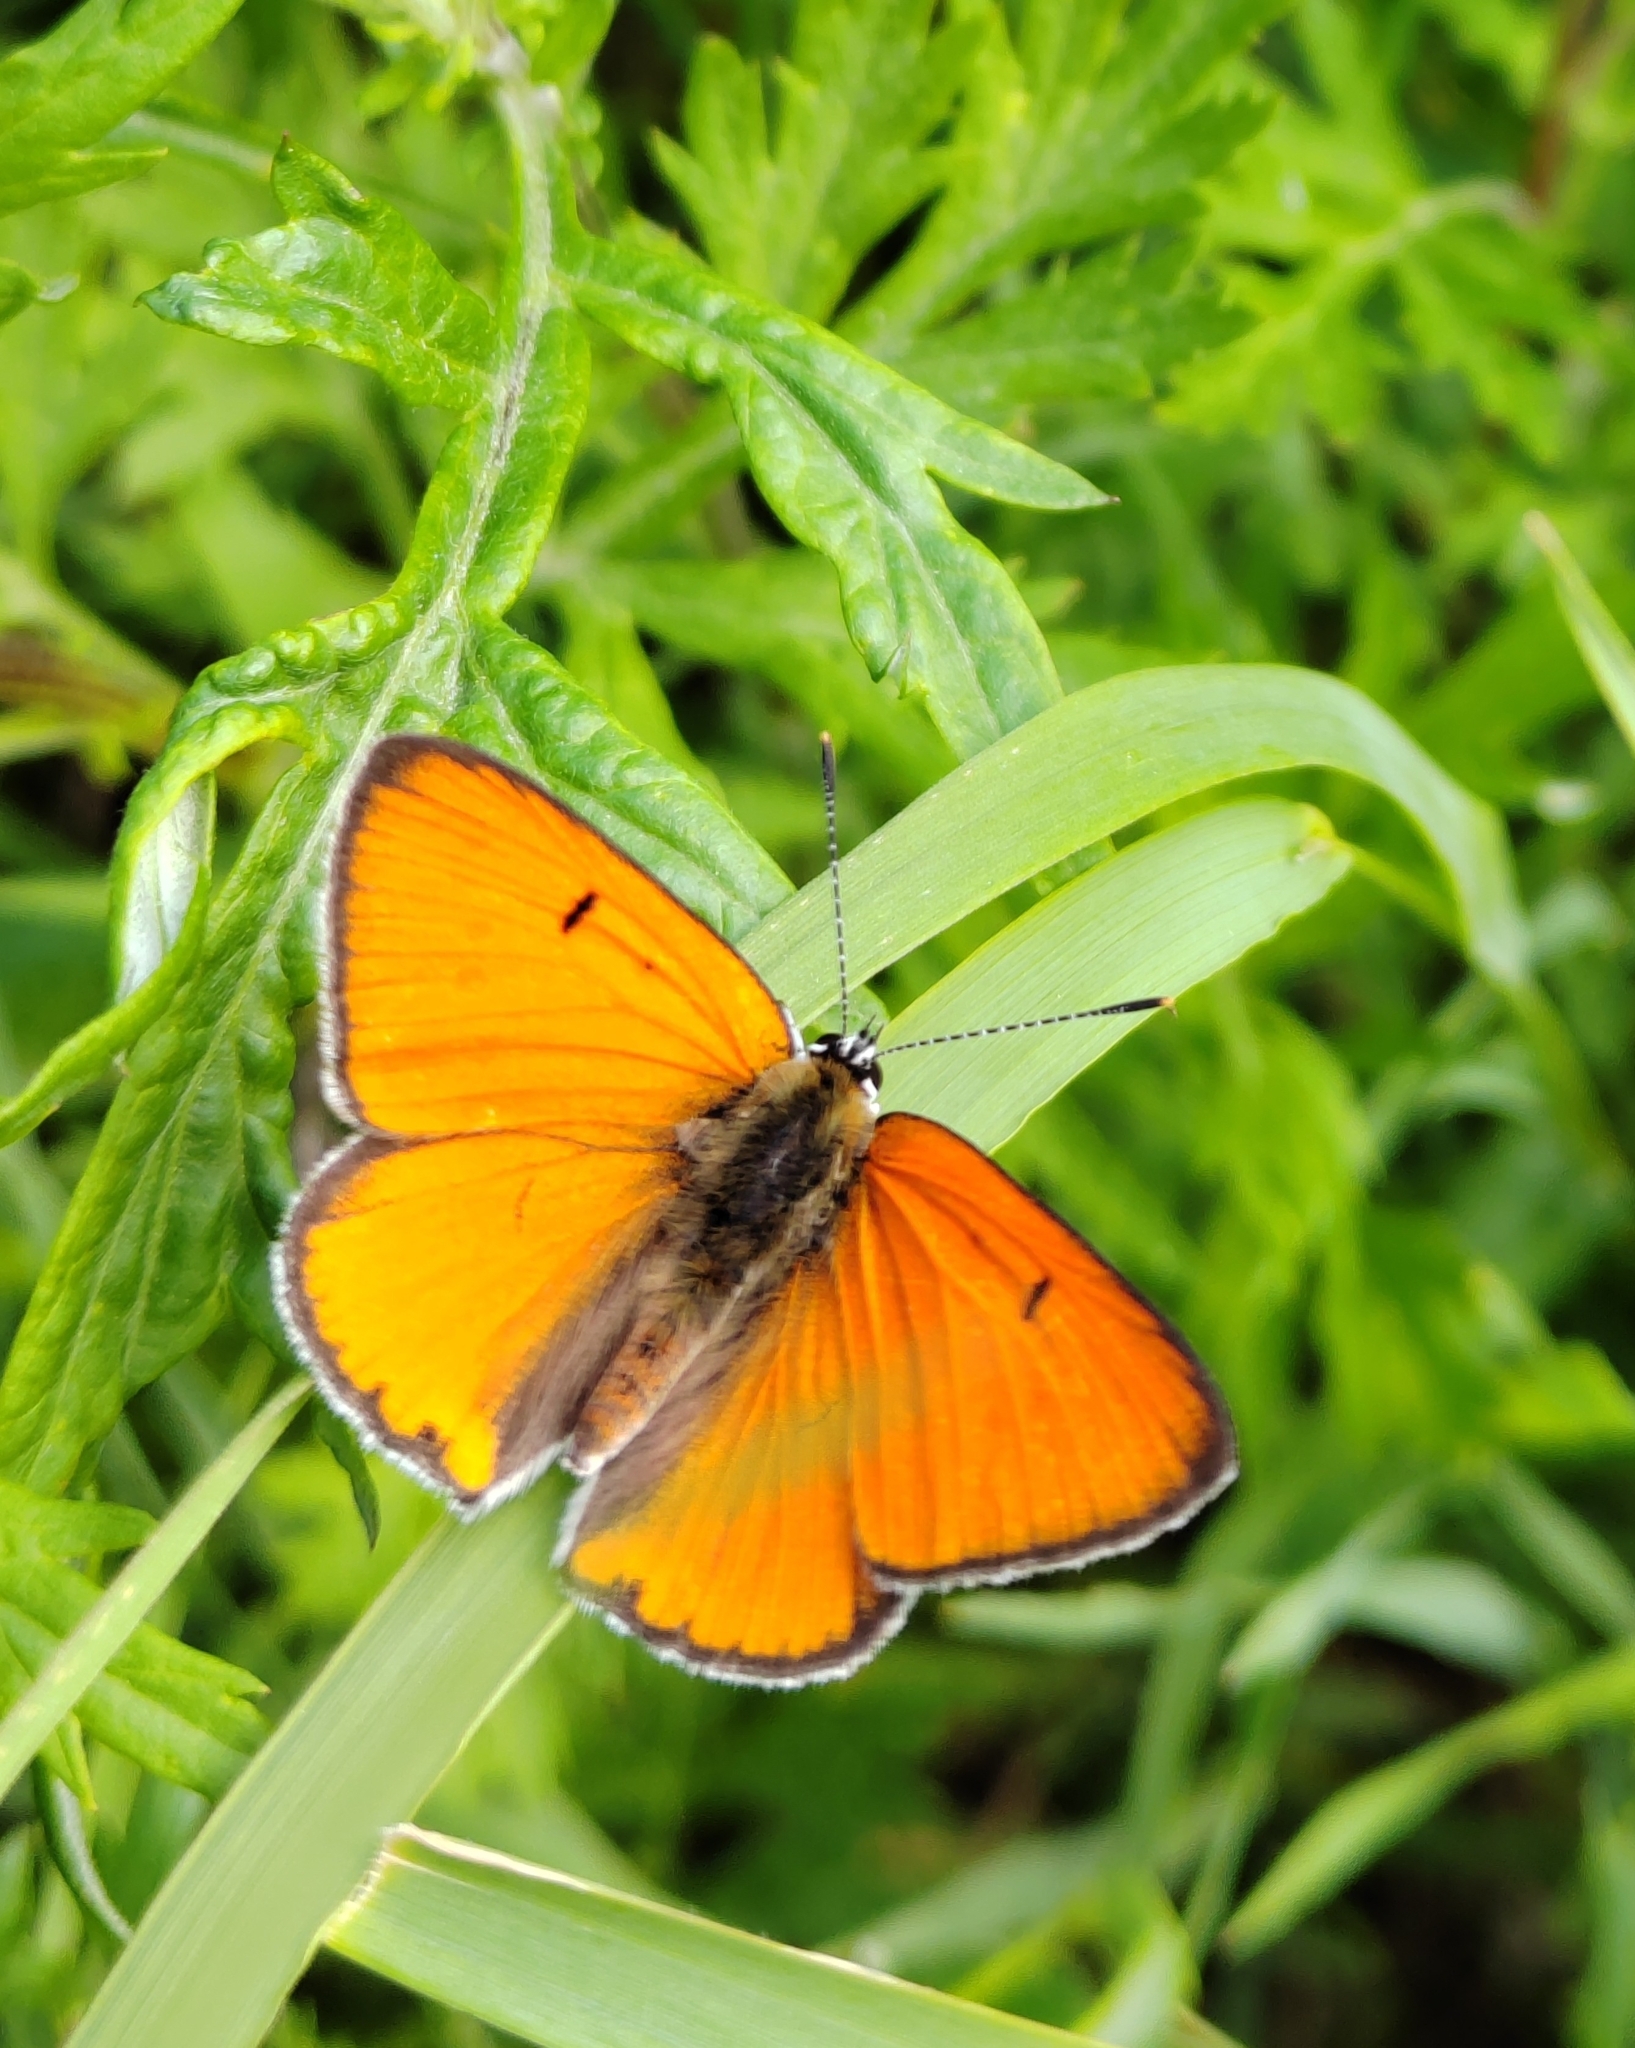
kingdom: Animalia
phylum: Arthropoda
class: Insecta
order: Lepidoptera
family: Lycaenidae
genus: Lycaena
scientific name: Lycaena dispar
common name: Large copper
